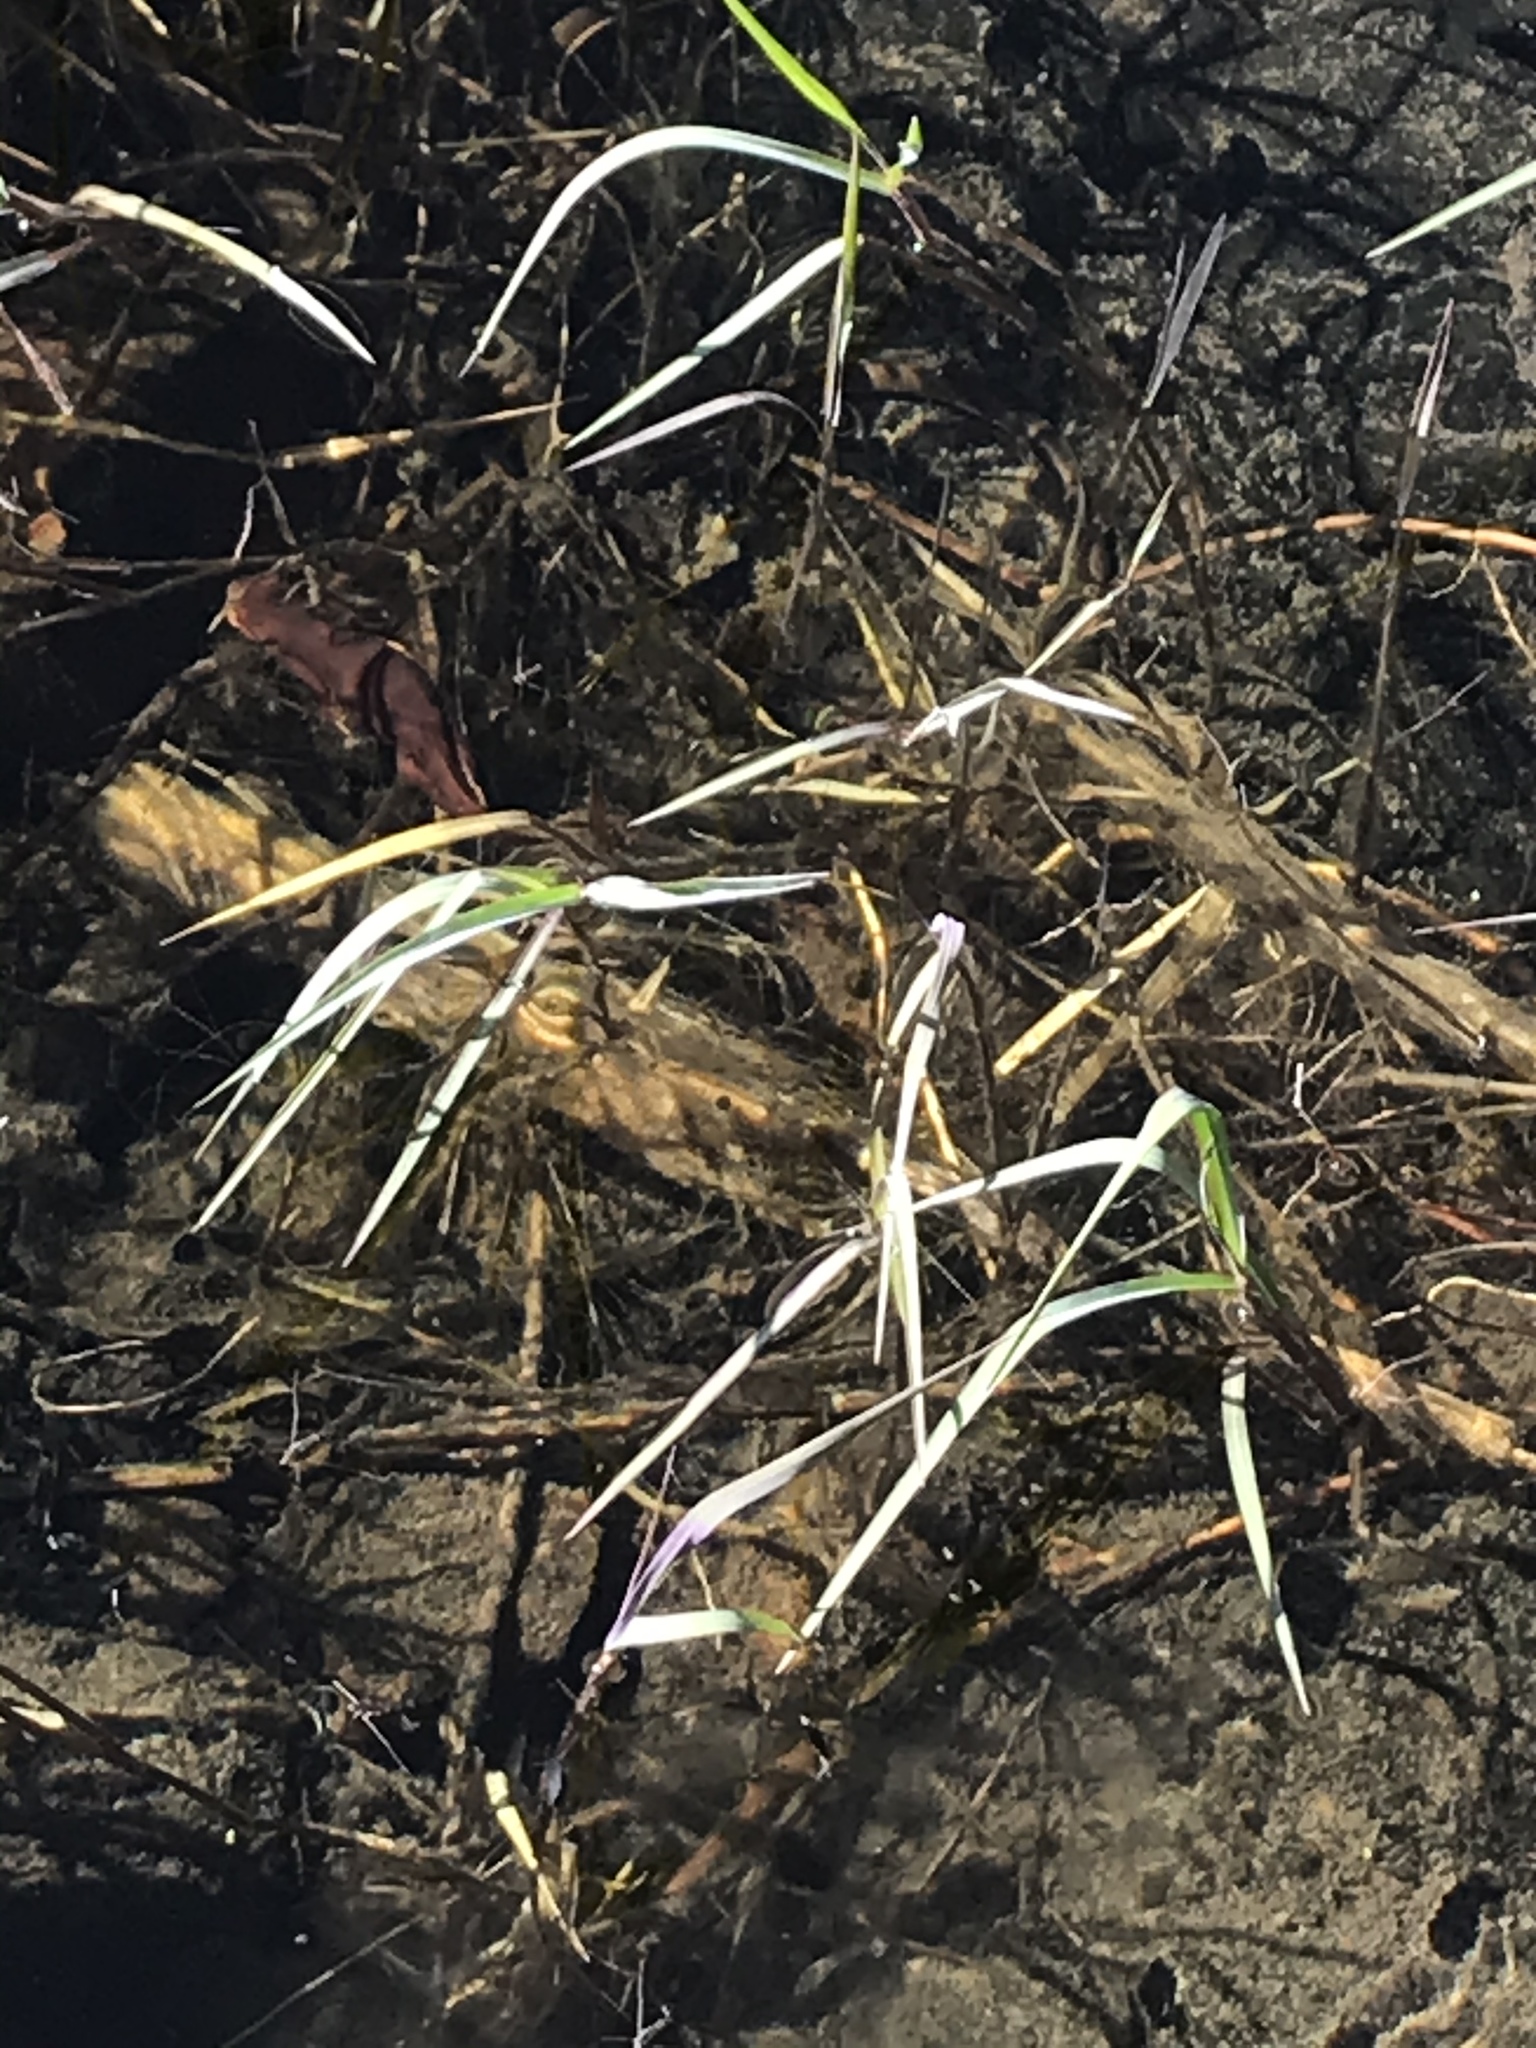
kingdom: Animalia
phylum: Chordata
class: Amphibia
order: Caudata
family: Salamandridae
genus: Taricha
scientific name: Taricha torosa
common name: California newt
